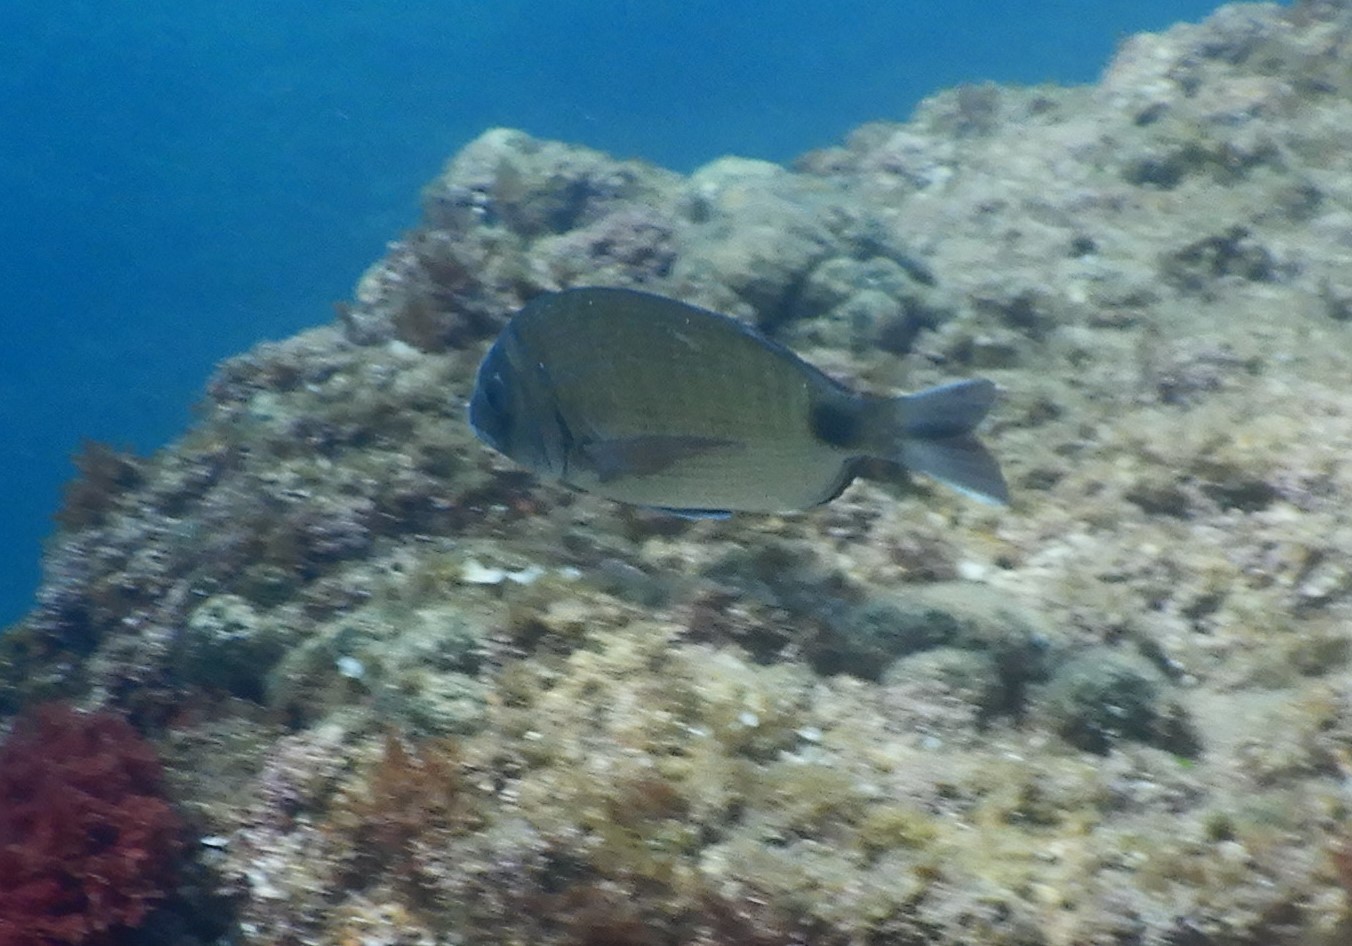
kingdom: Animalia
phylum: Chordata
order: Perciformes
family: Sparidae
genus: Diplodus
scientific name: Diplodus sargus
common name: White seabream
